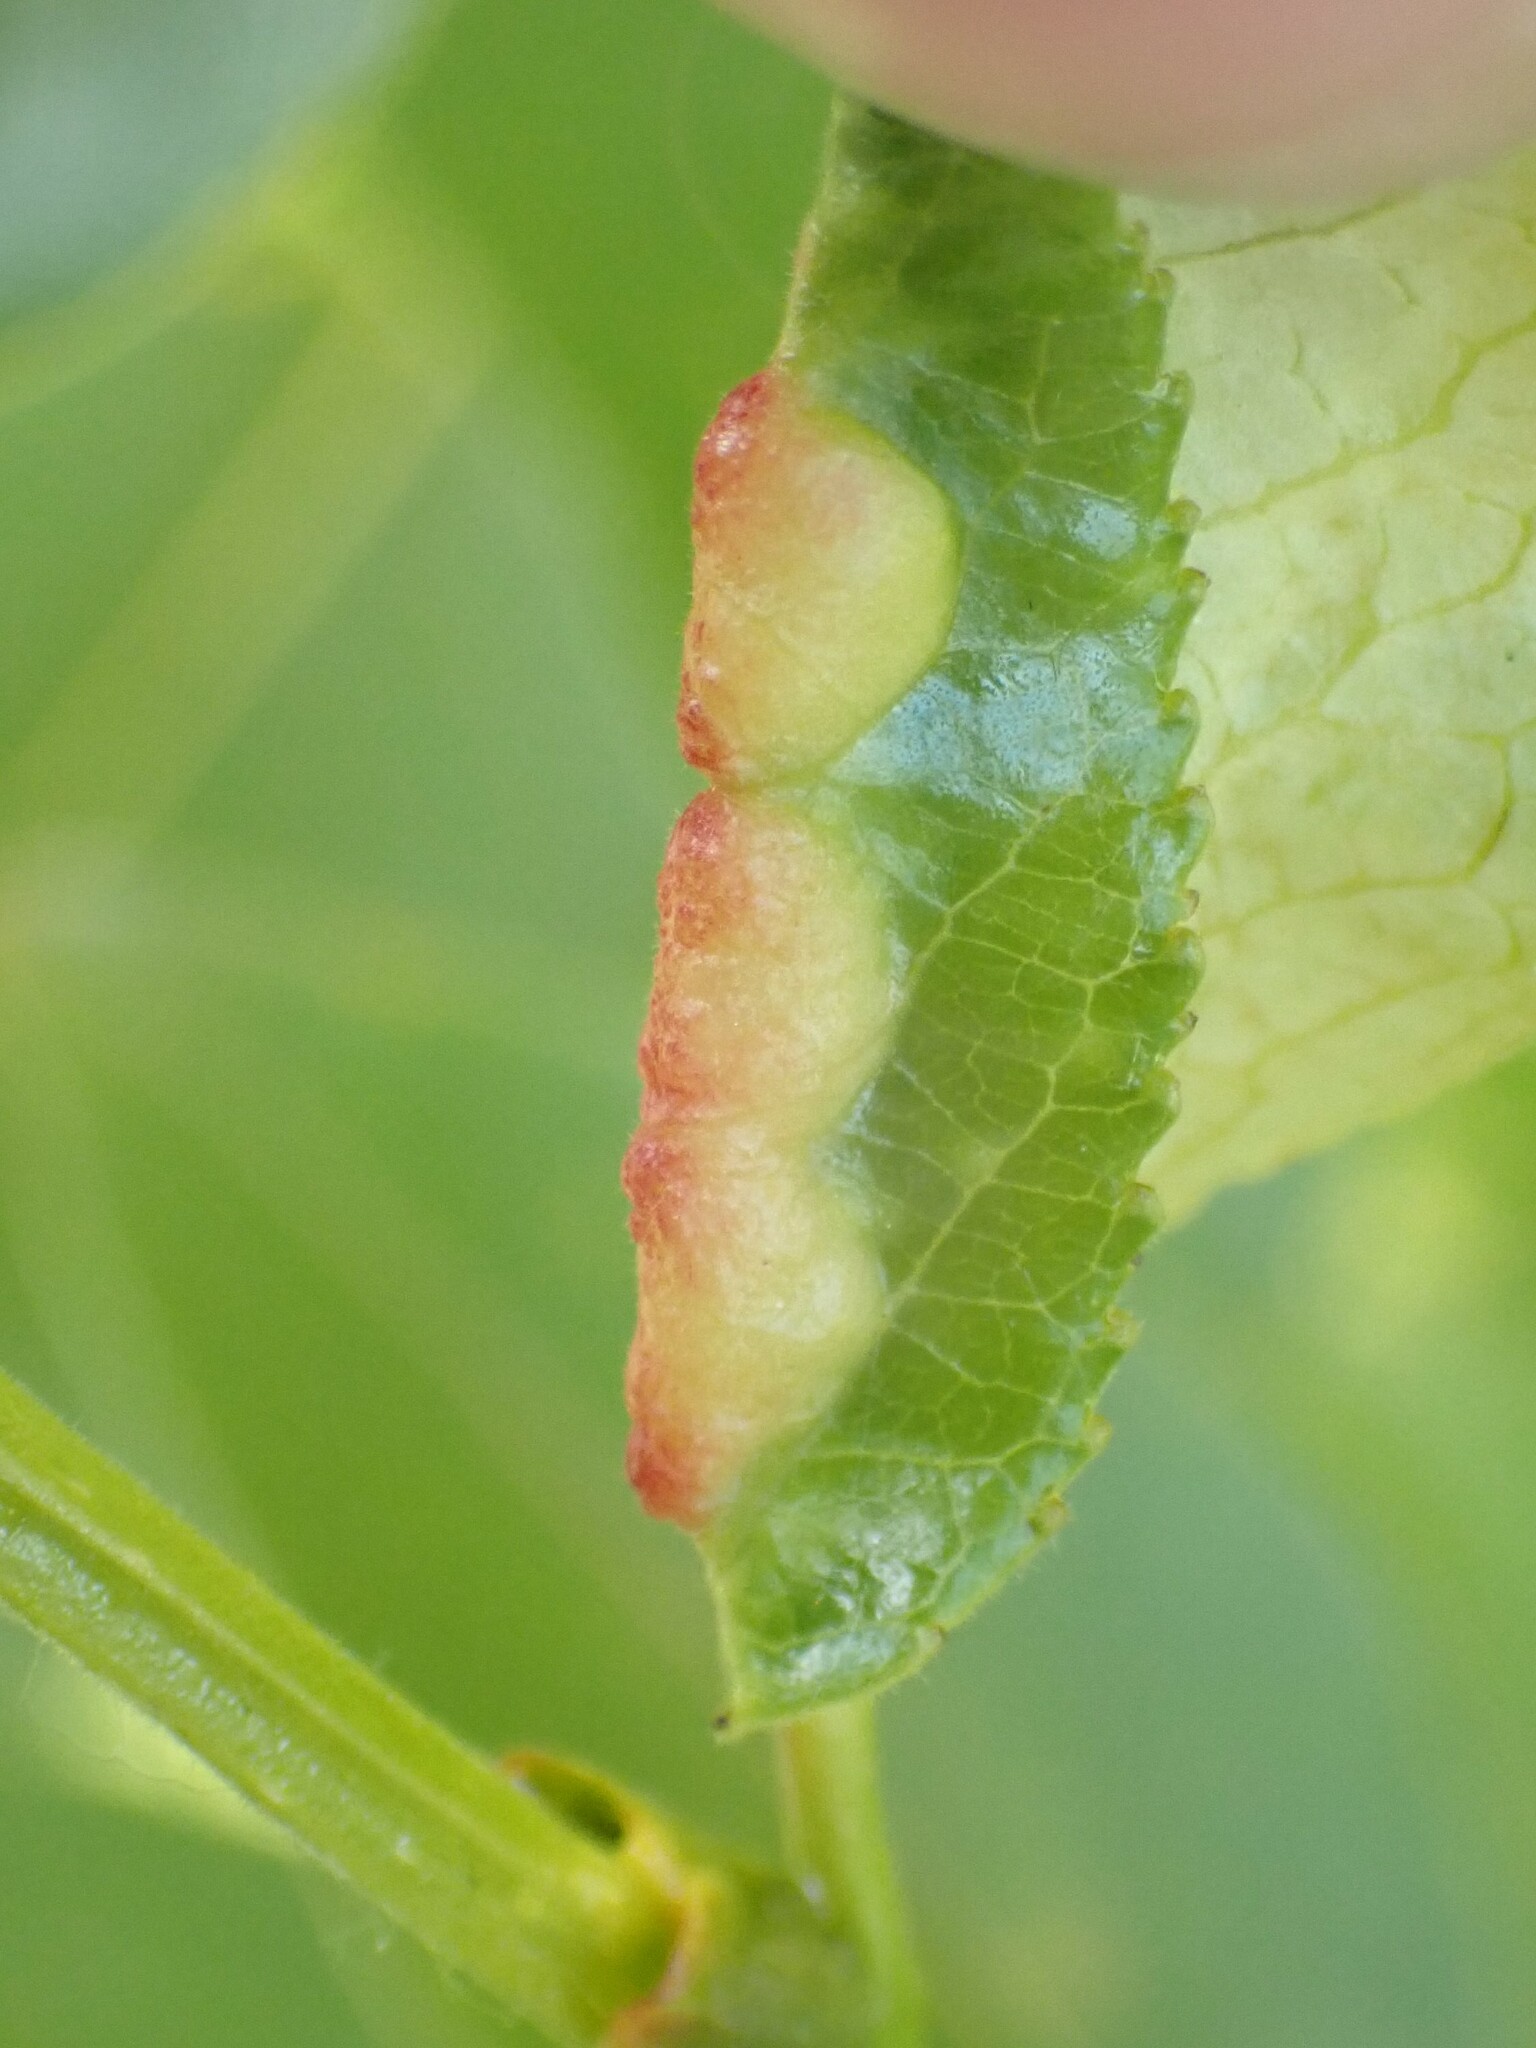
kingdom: Animalia
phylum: Arthropoda
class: Insecta
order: Hemiptera
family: Aphididae
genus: Thecabius
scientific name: Thecabius populimonilis
